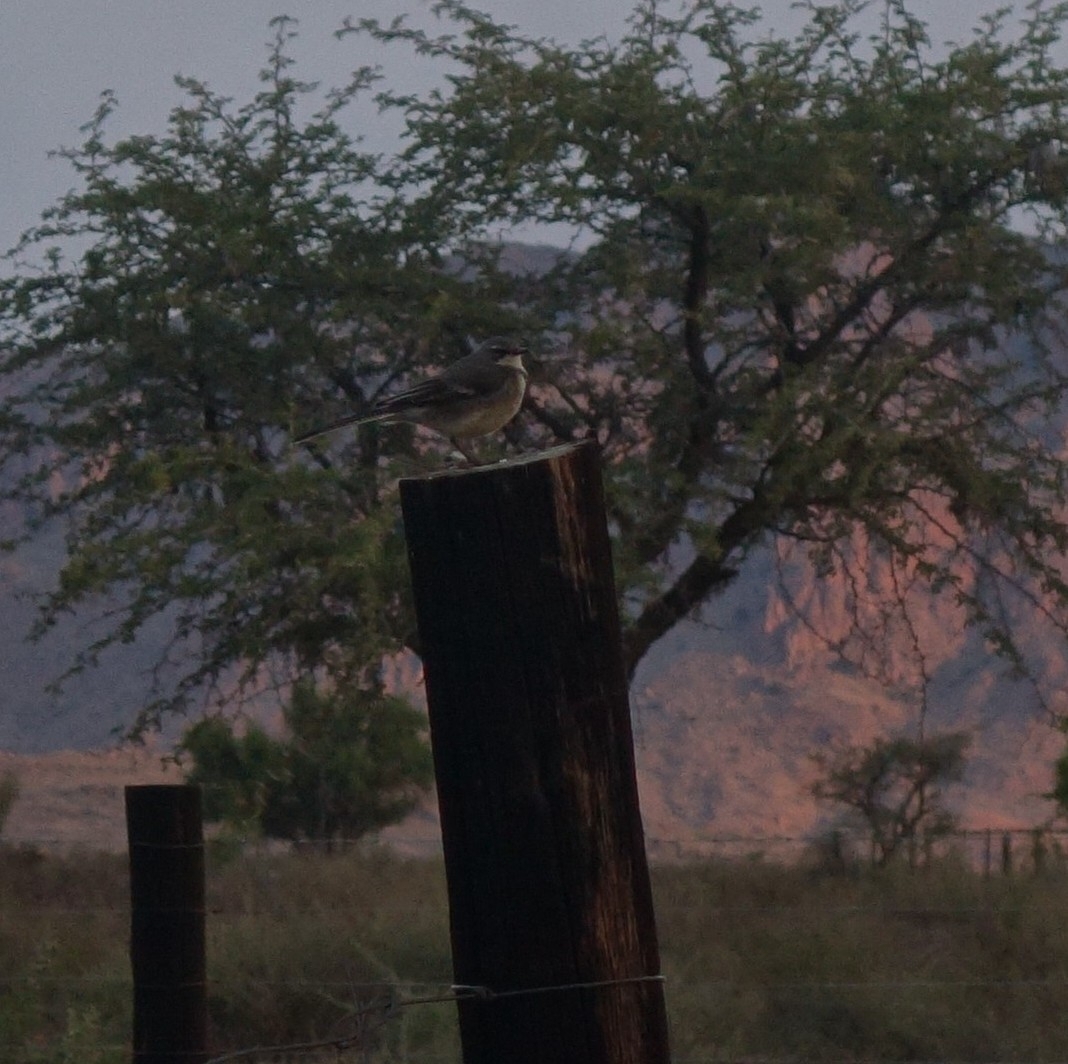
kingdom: Animalia
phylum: Chordata
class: Aves
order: Passeriformes
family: Motacillidae
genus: Motacilla
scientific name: Motacilla capensis
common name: Cape wagtail
